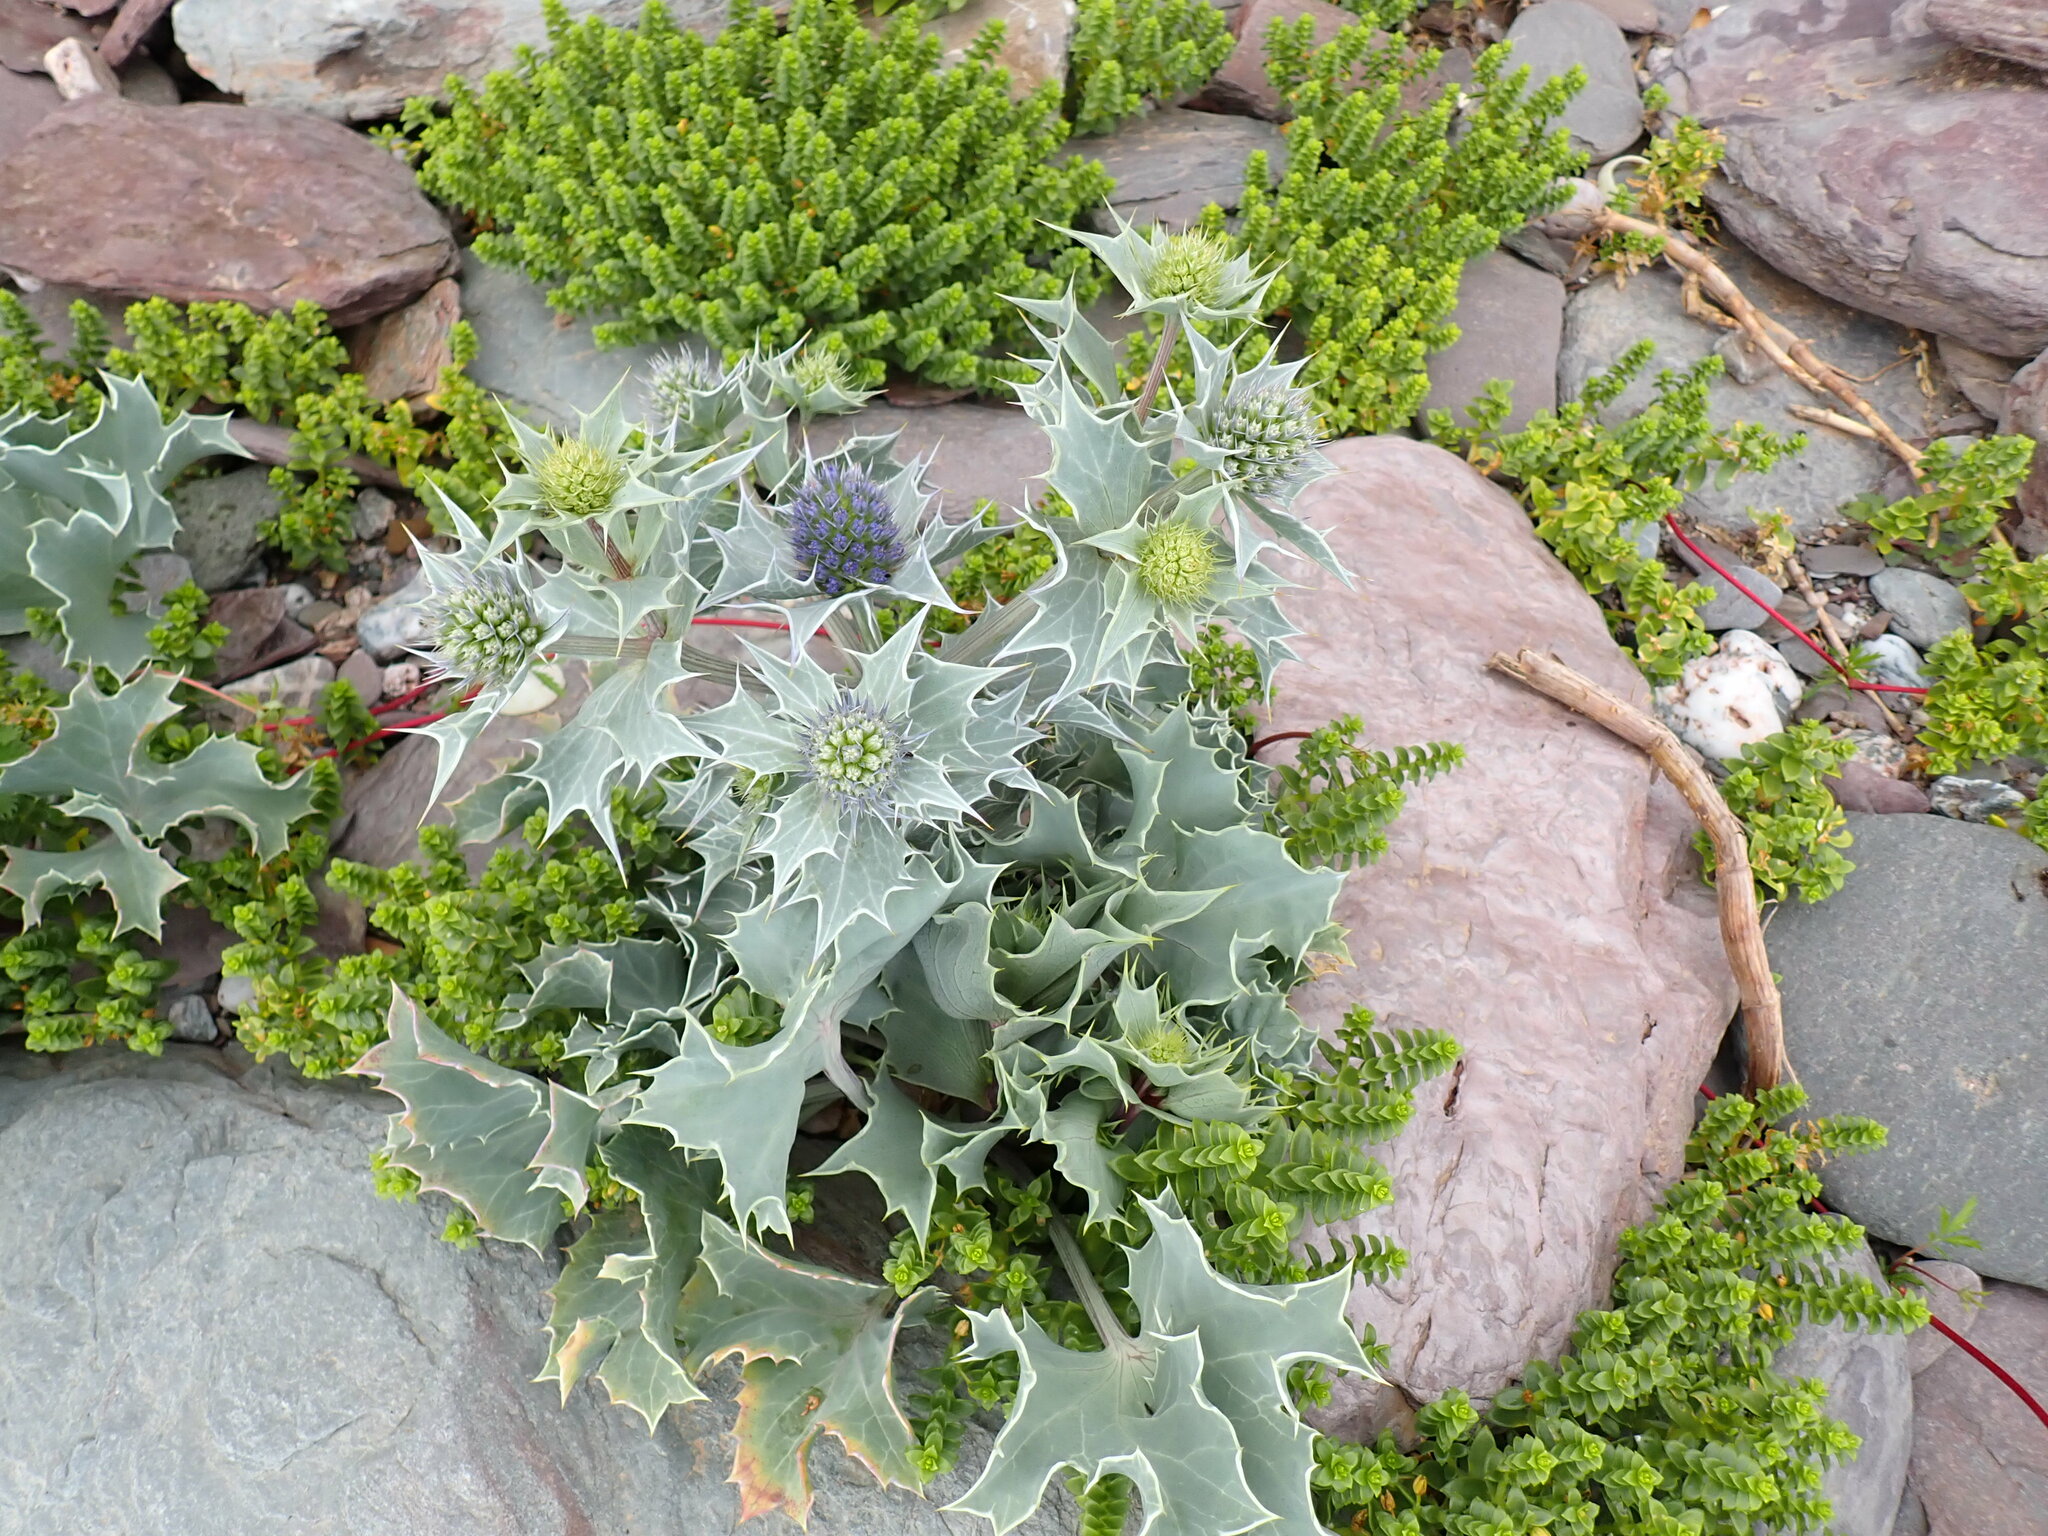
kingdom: Plantae
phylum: Tracheophyta
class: Magnoliopsida
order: Apiales
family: Apiaceae
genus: Eryngium
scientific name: Eryngium maritimum
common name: Sea-holly
